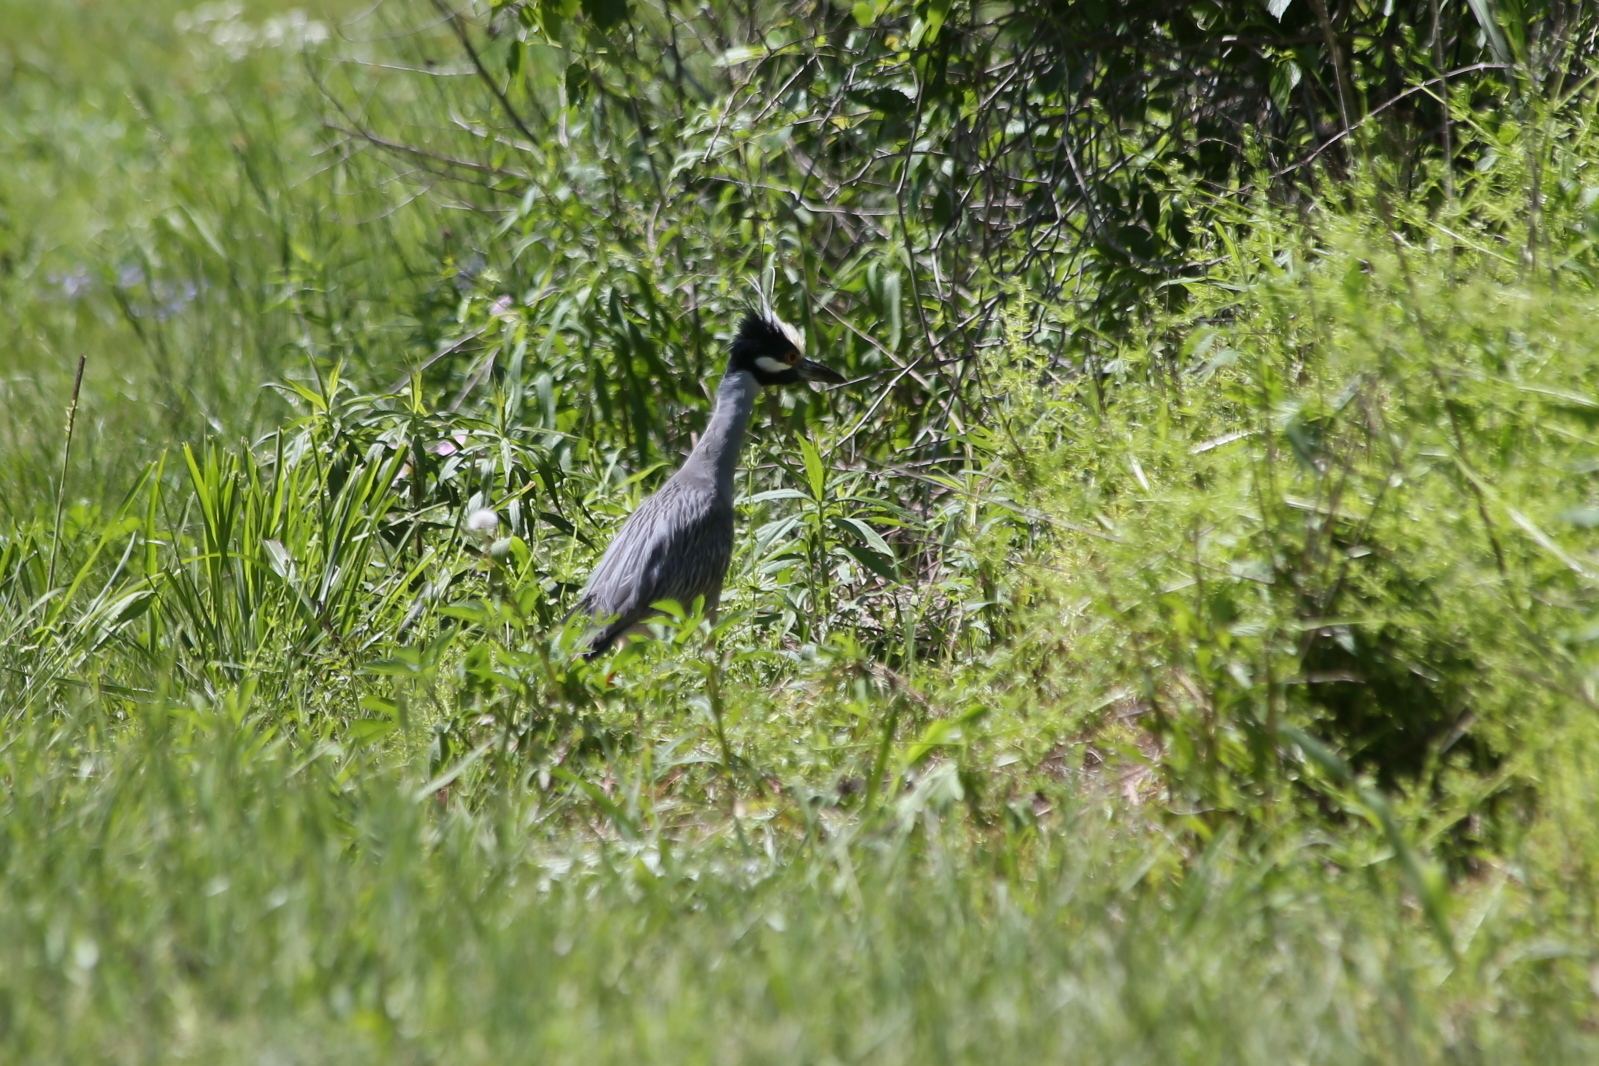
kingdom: Animalia
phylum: Chordata
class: Aves
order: Pelecaniformes
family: Ardeidae
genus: Nyctanassa
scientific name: Nyctanassa violacea
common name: Yellow-crowned night heron
